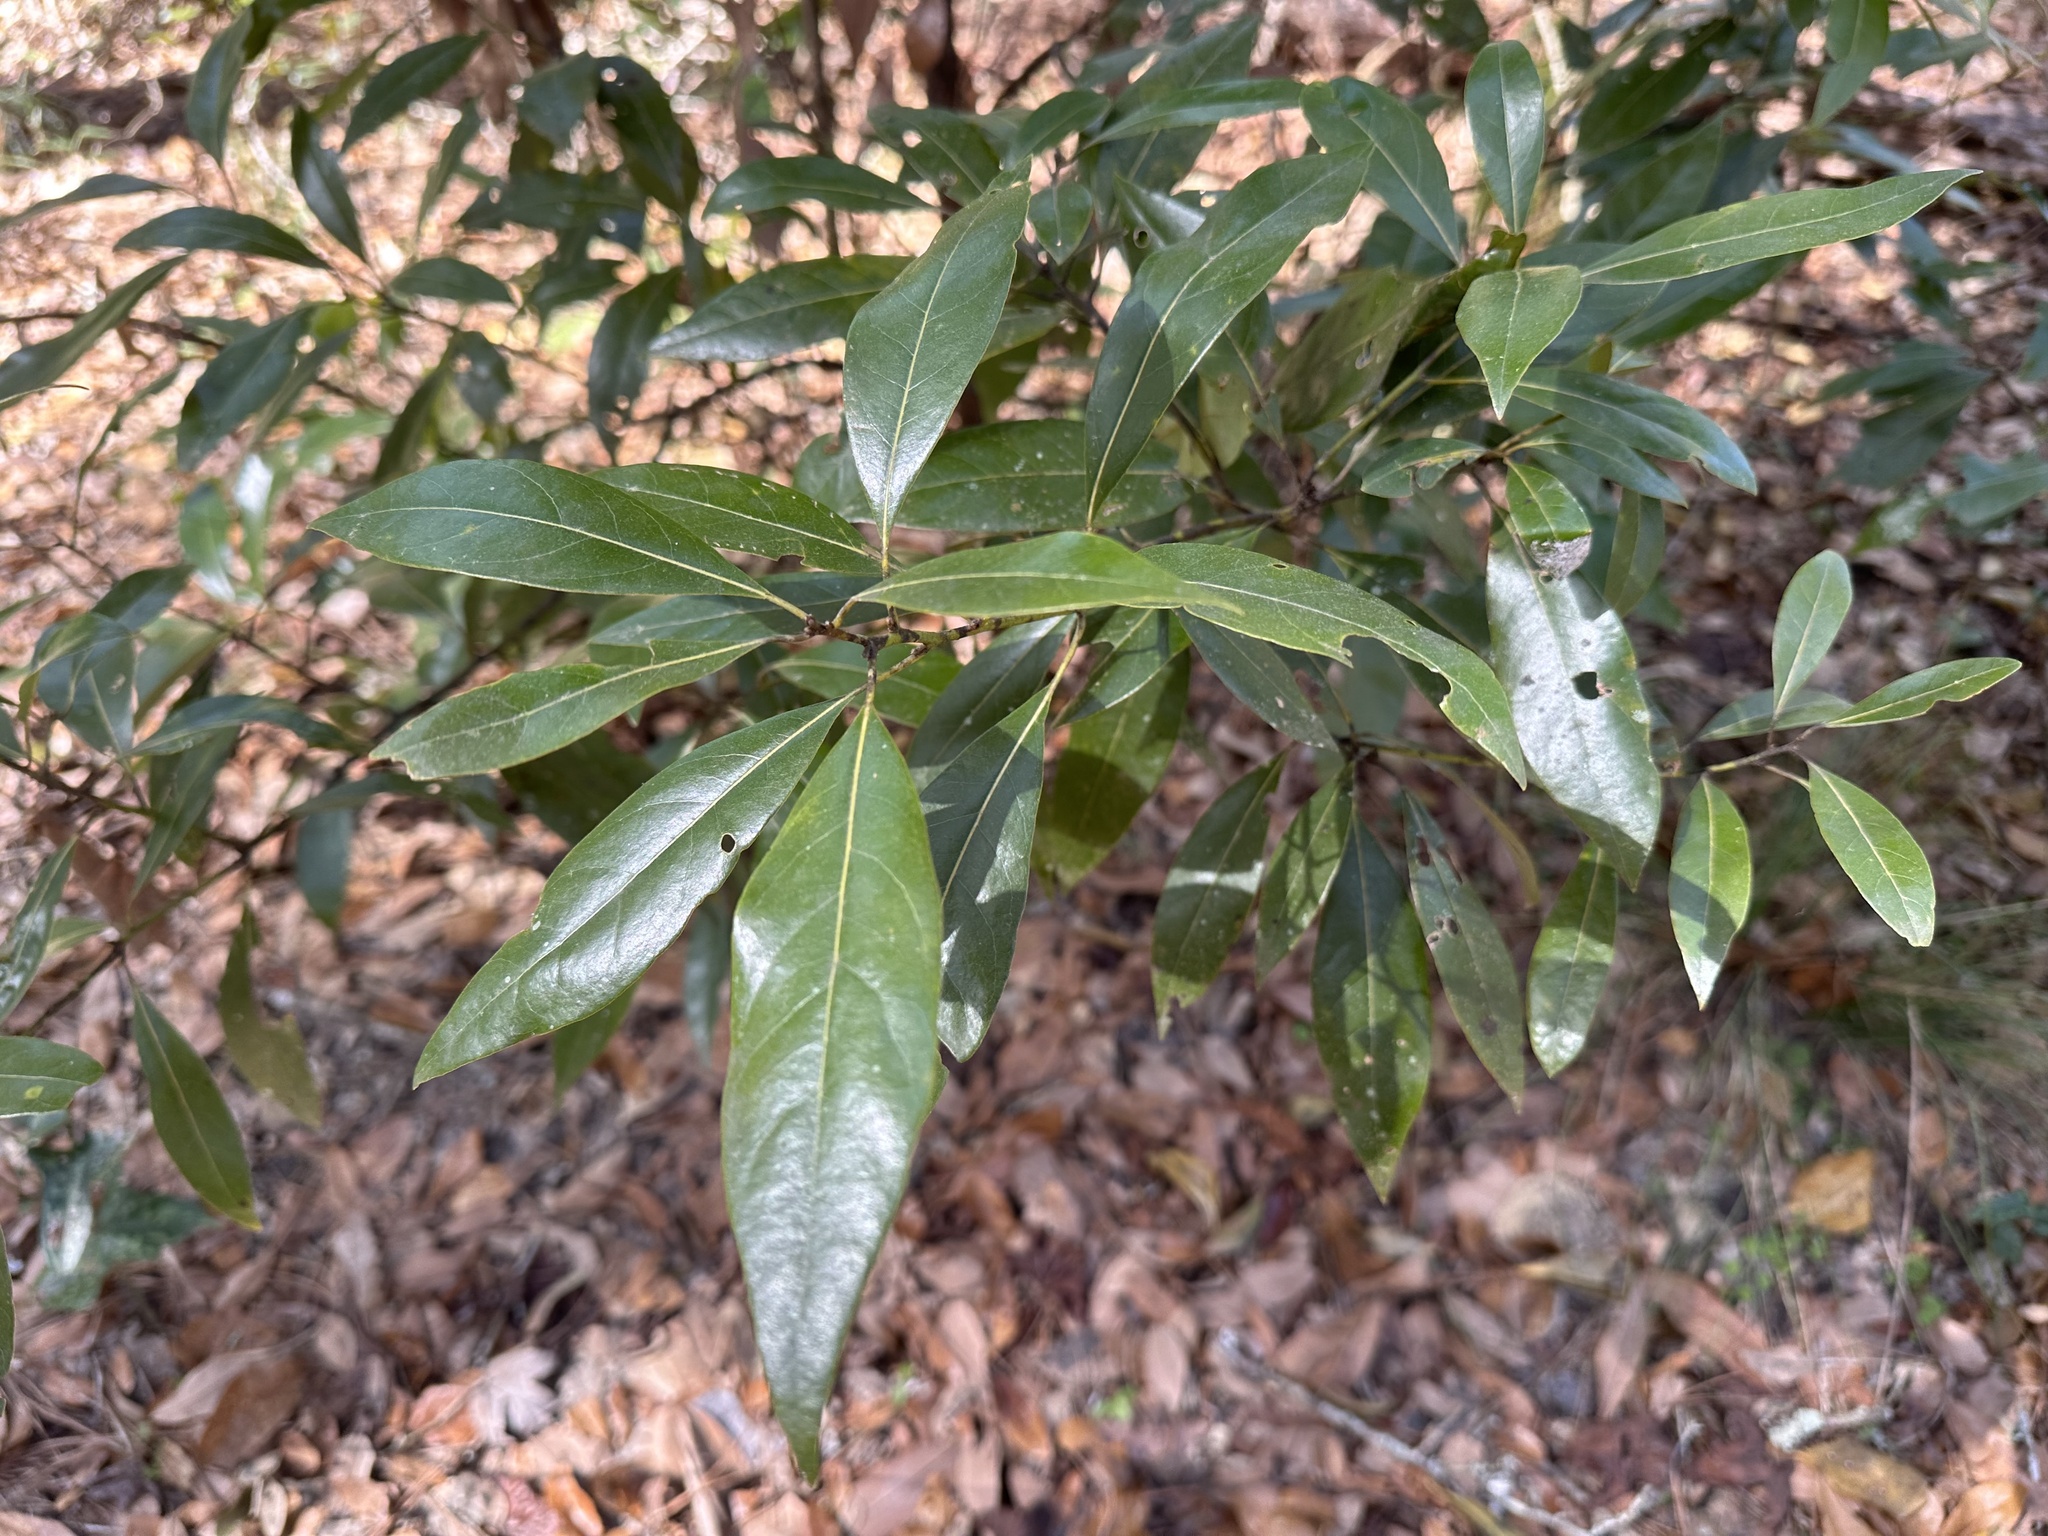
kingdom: Plantae
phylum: Tracheophyta
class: Magnoliopsida
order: Laurales
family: Lauraceae
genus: Persea
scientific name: Persea borbonia
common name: Redbay
